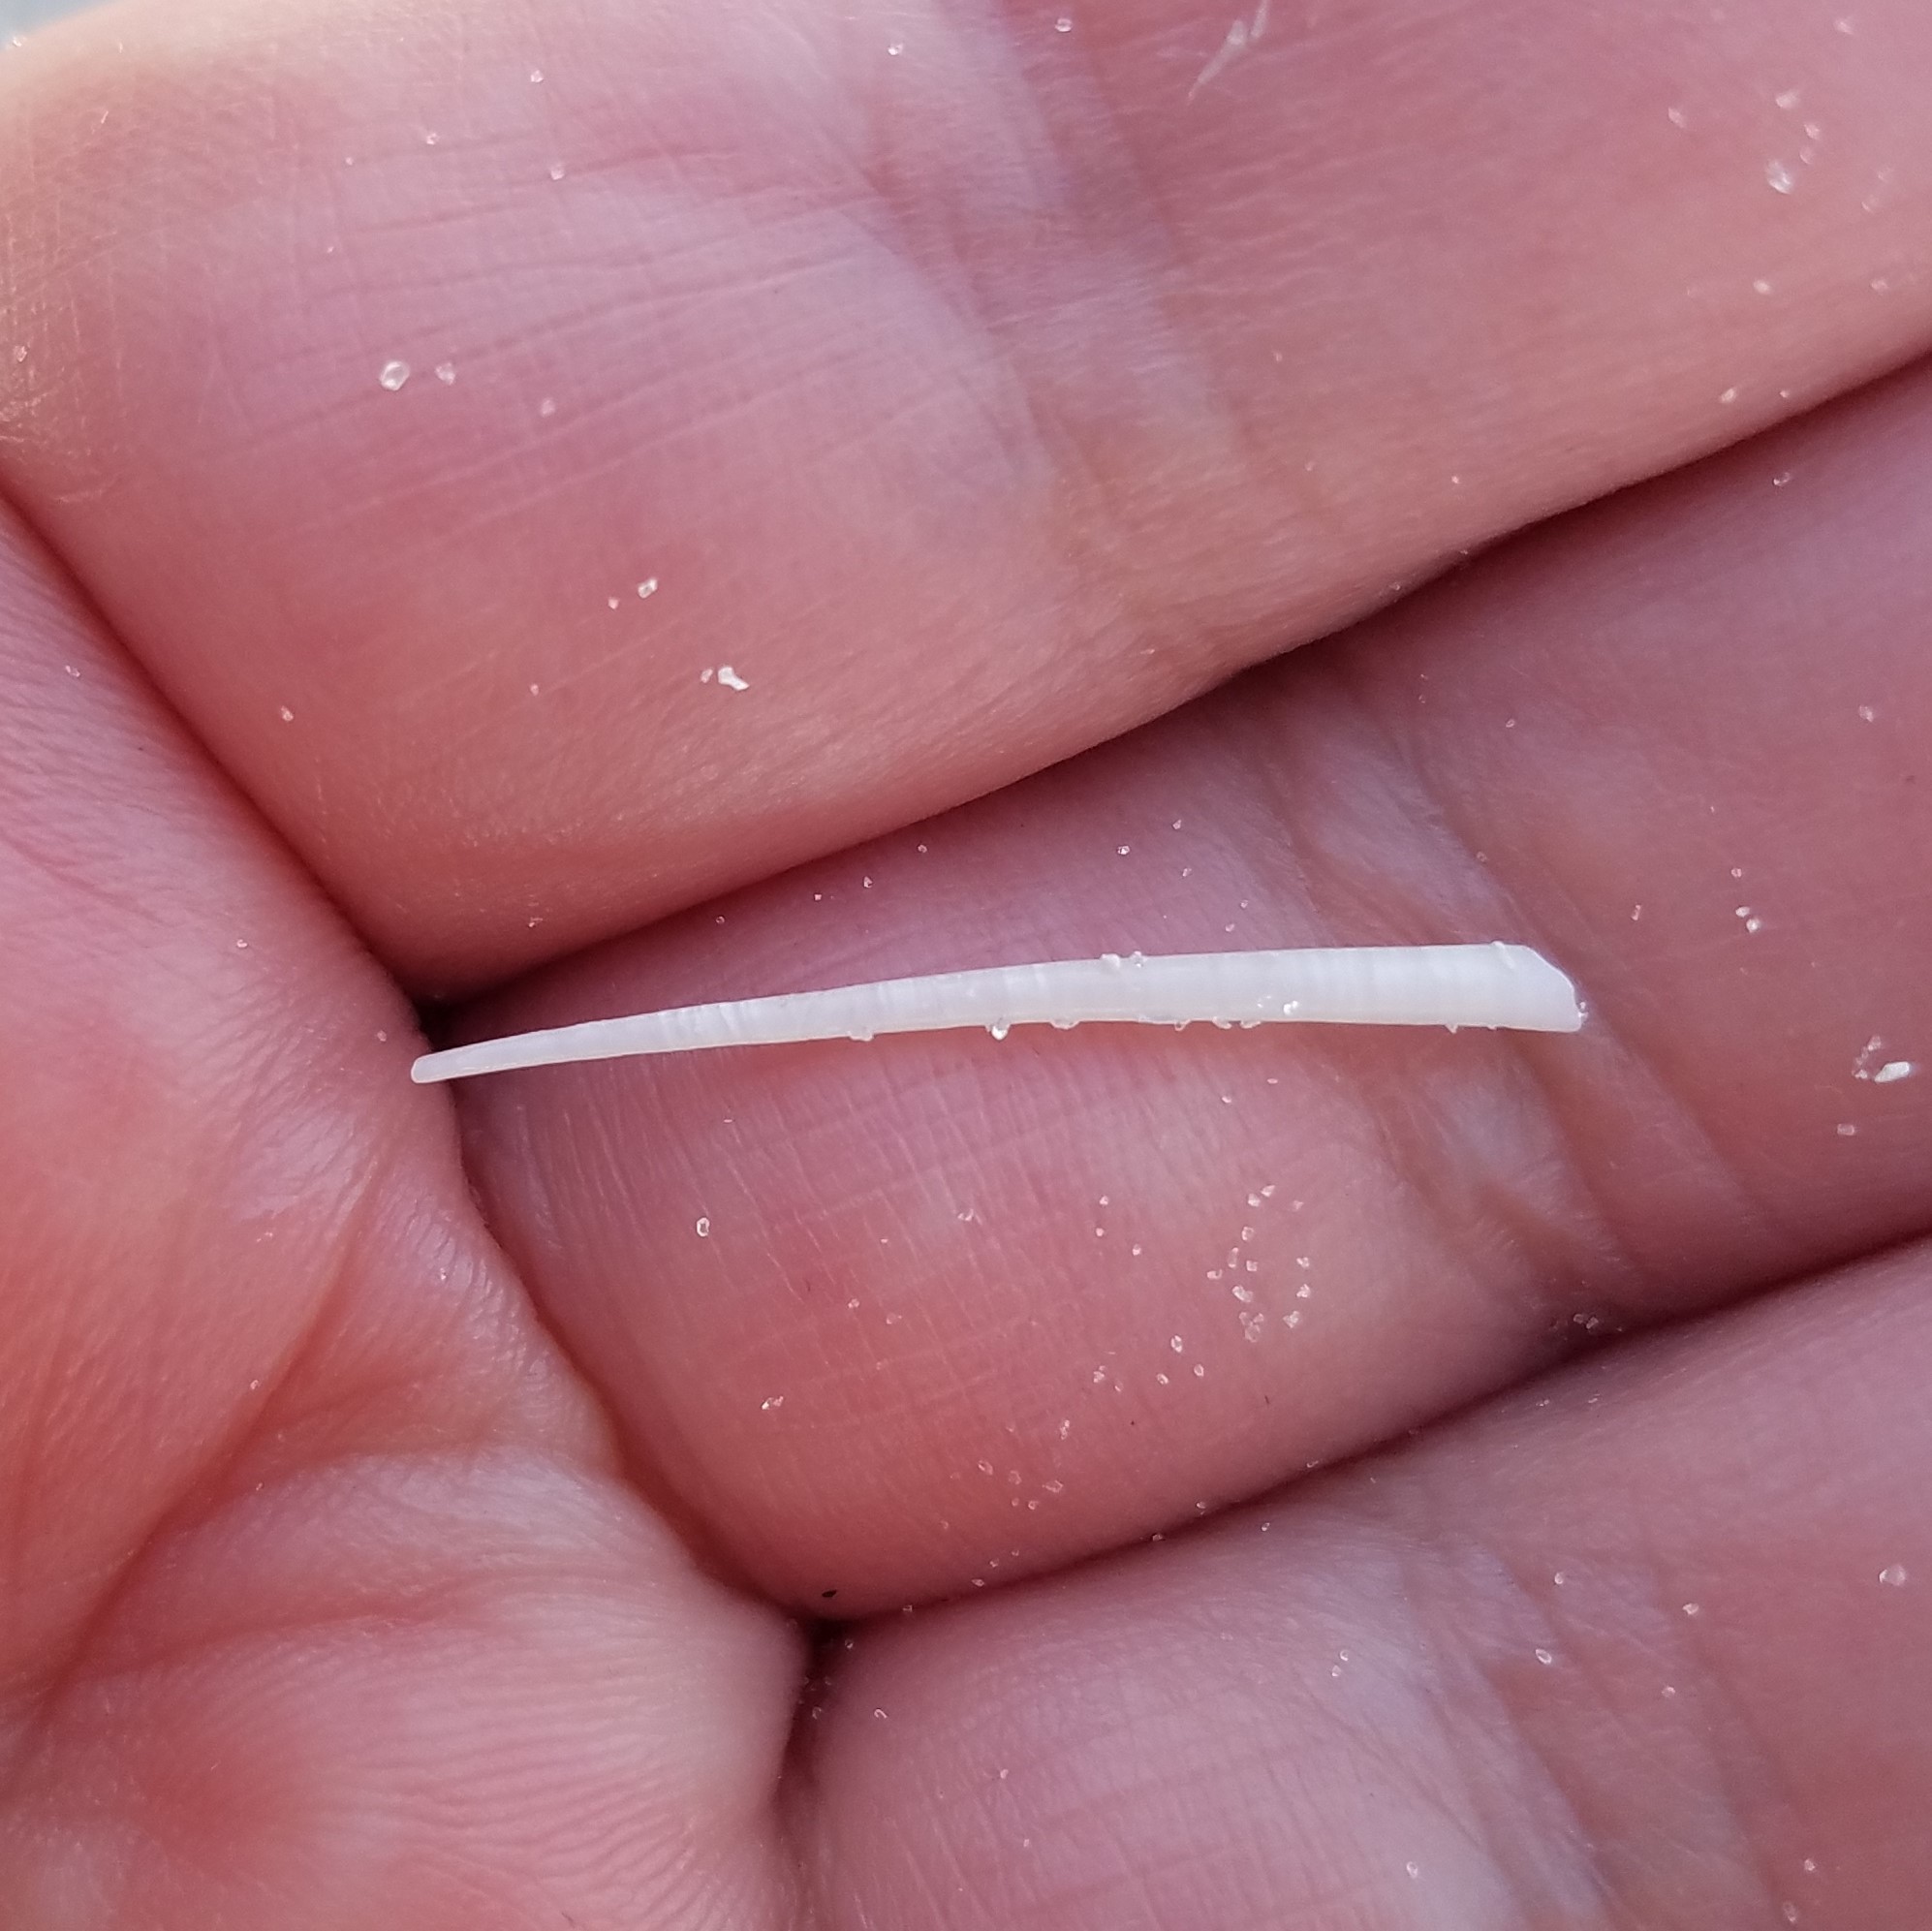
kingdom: Animalia
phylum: Mollusca
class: Scaphopoda
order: Dentaliida
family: Dentaliidae
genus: Graptacme
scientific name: Graptacme eborea
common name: Ivory tuskshell
